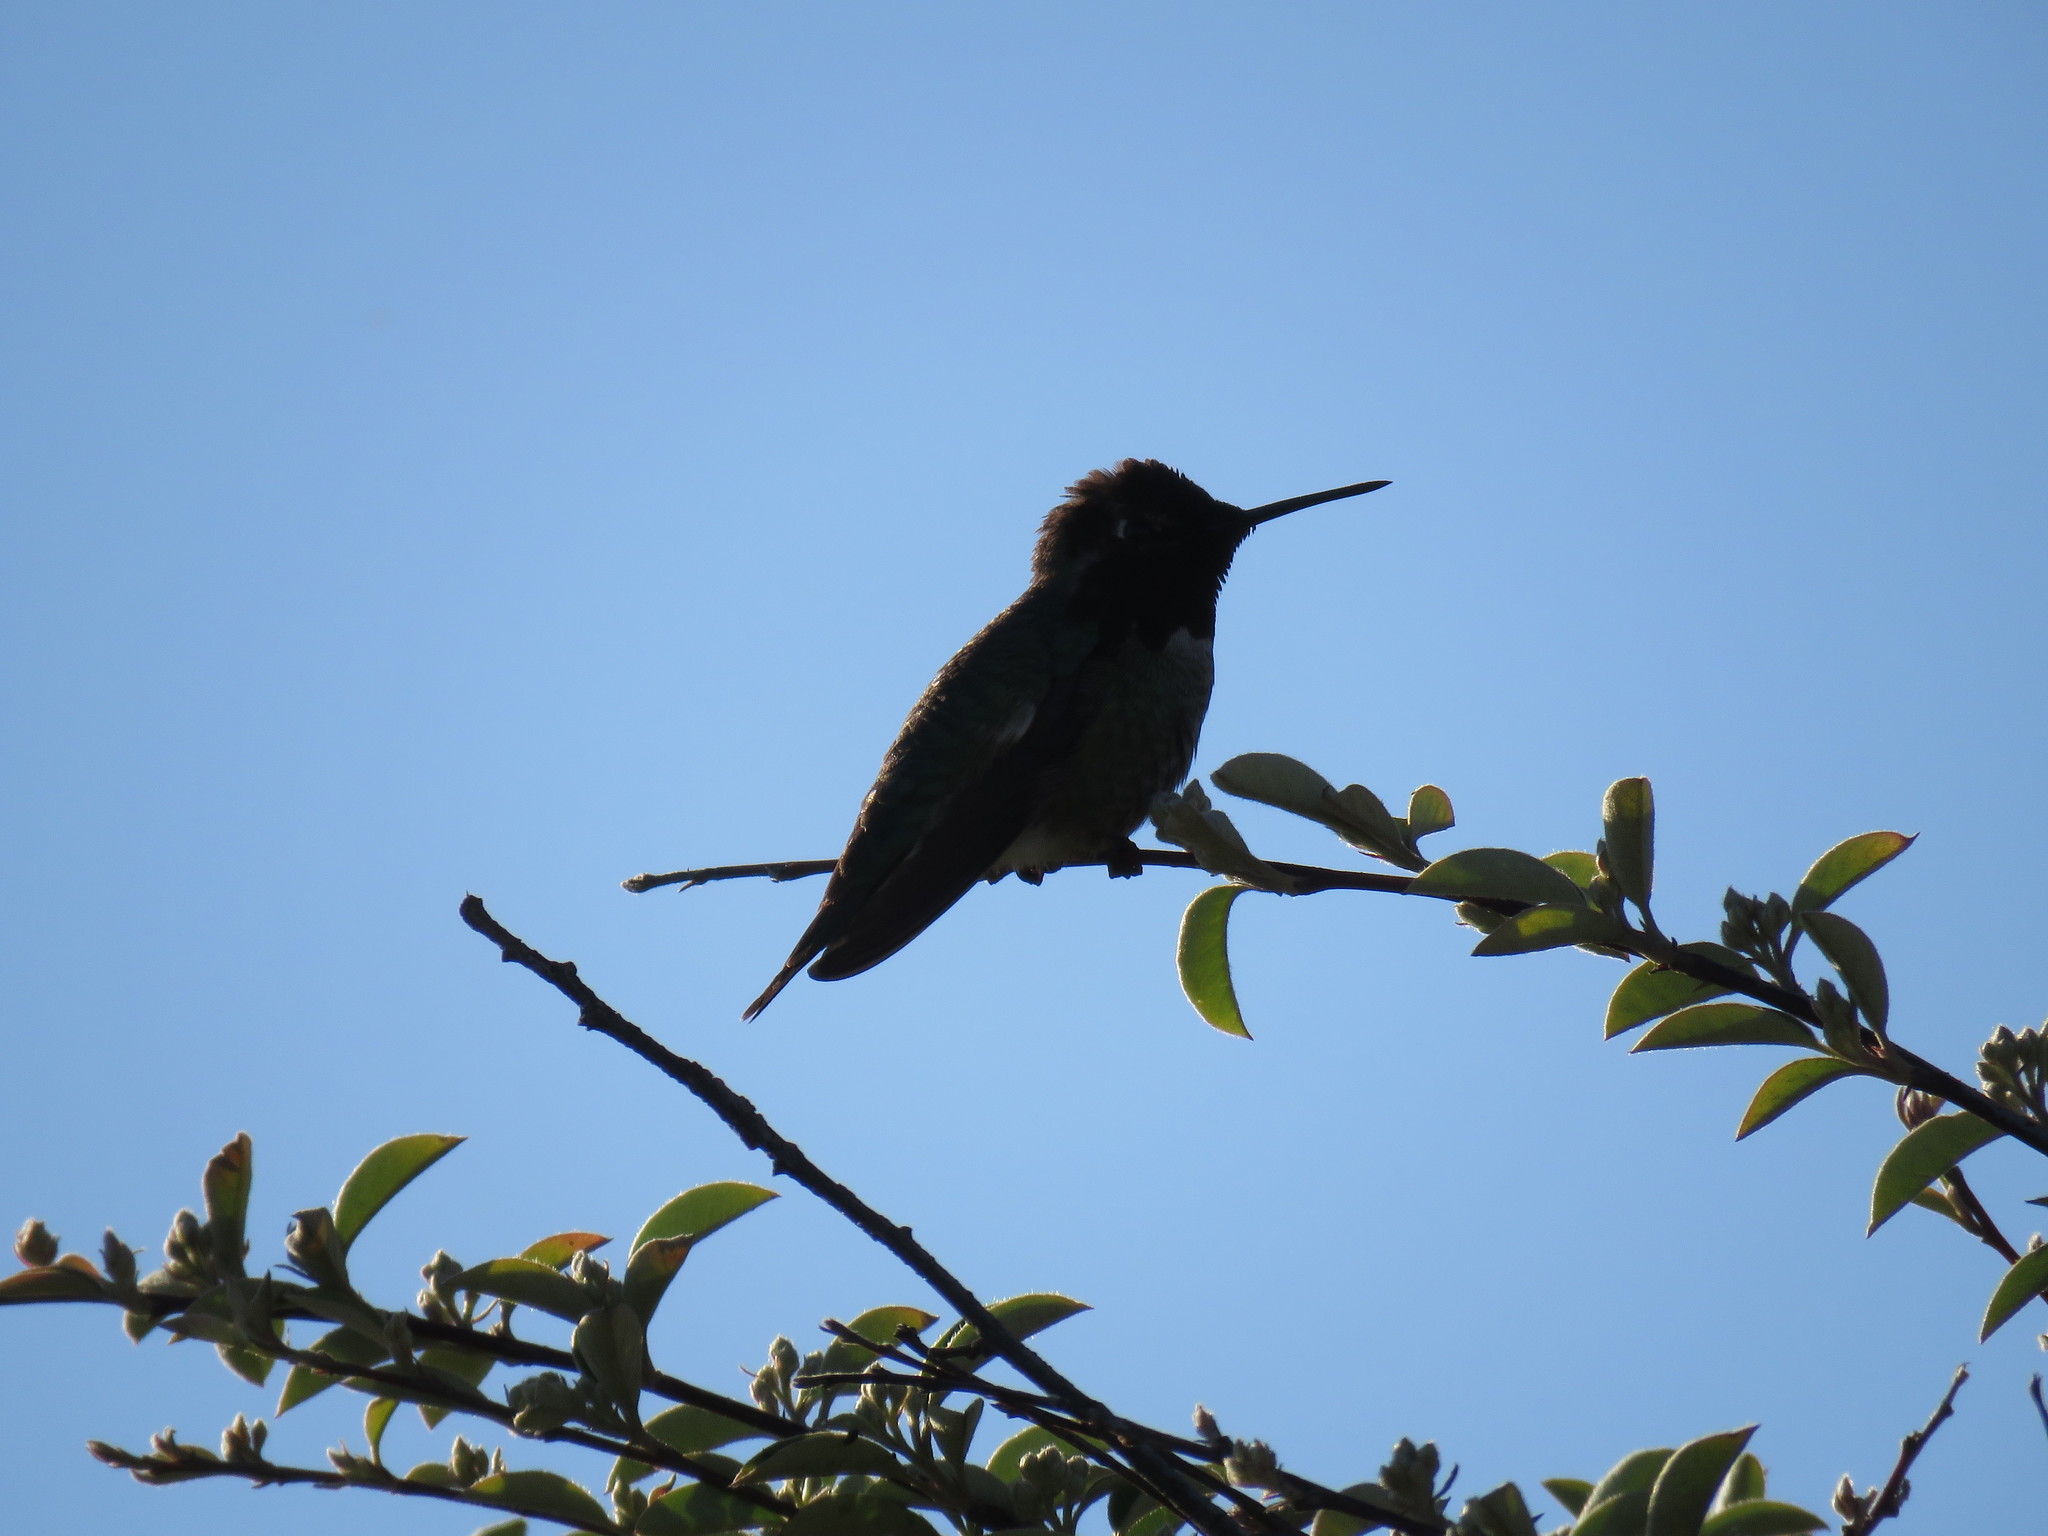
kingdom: Animalia
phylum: Chordata
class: Aves
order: Apodiformes
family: Trochilidae
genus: Calypte
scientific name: Calypte anna
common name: Anna's hummingbird
